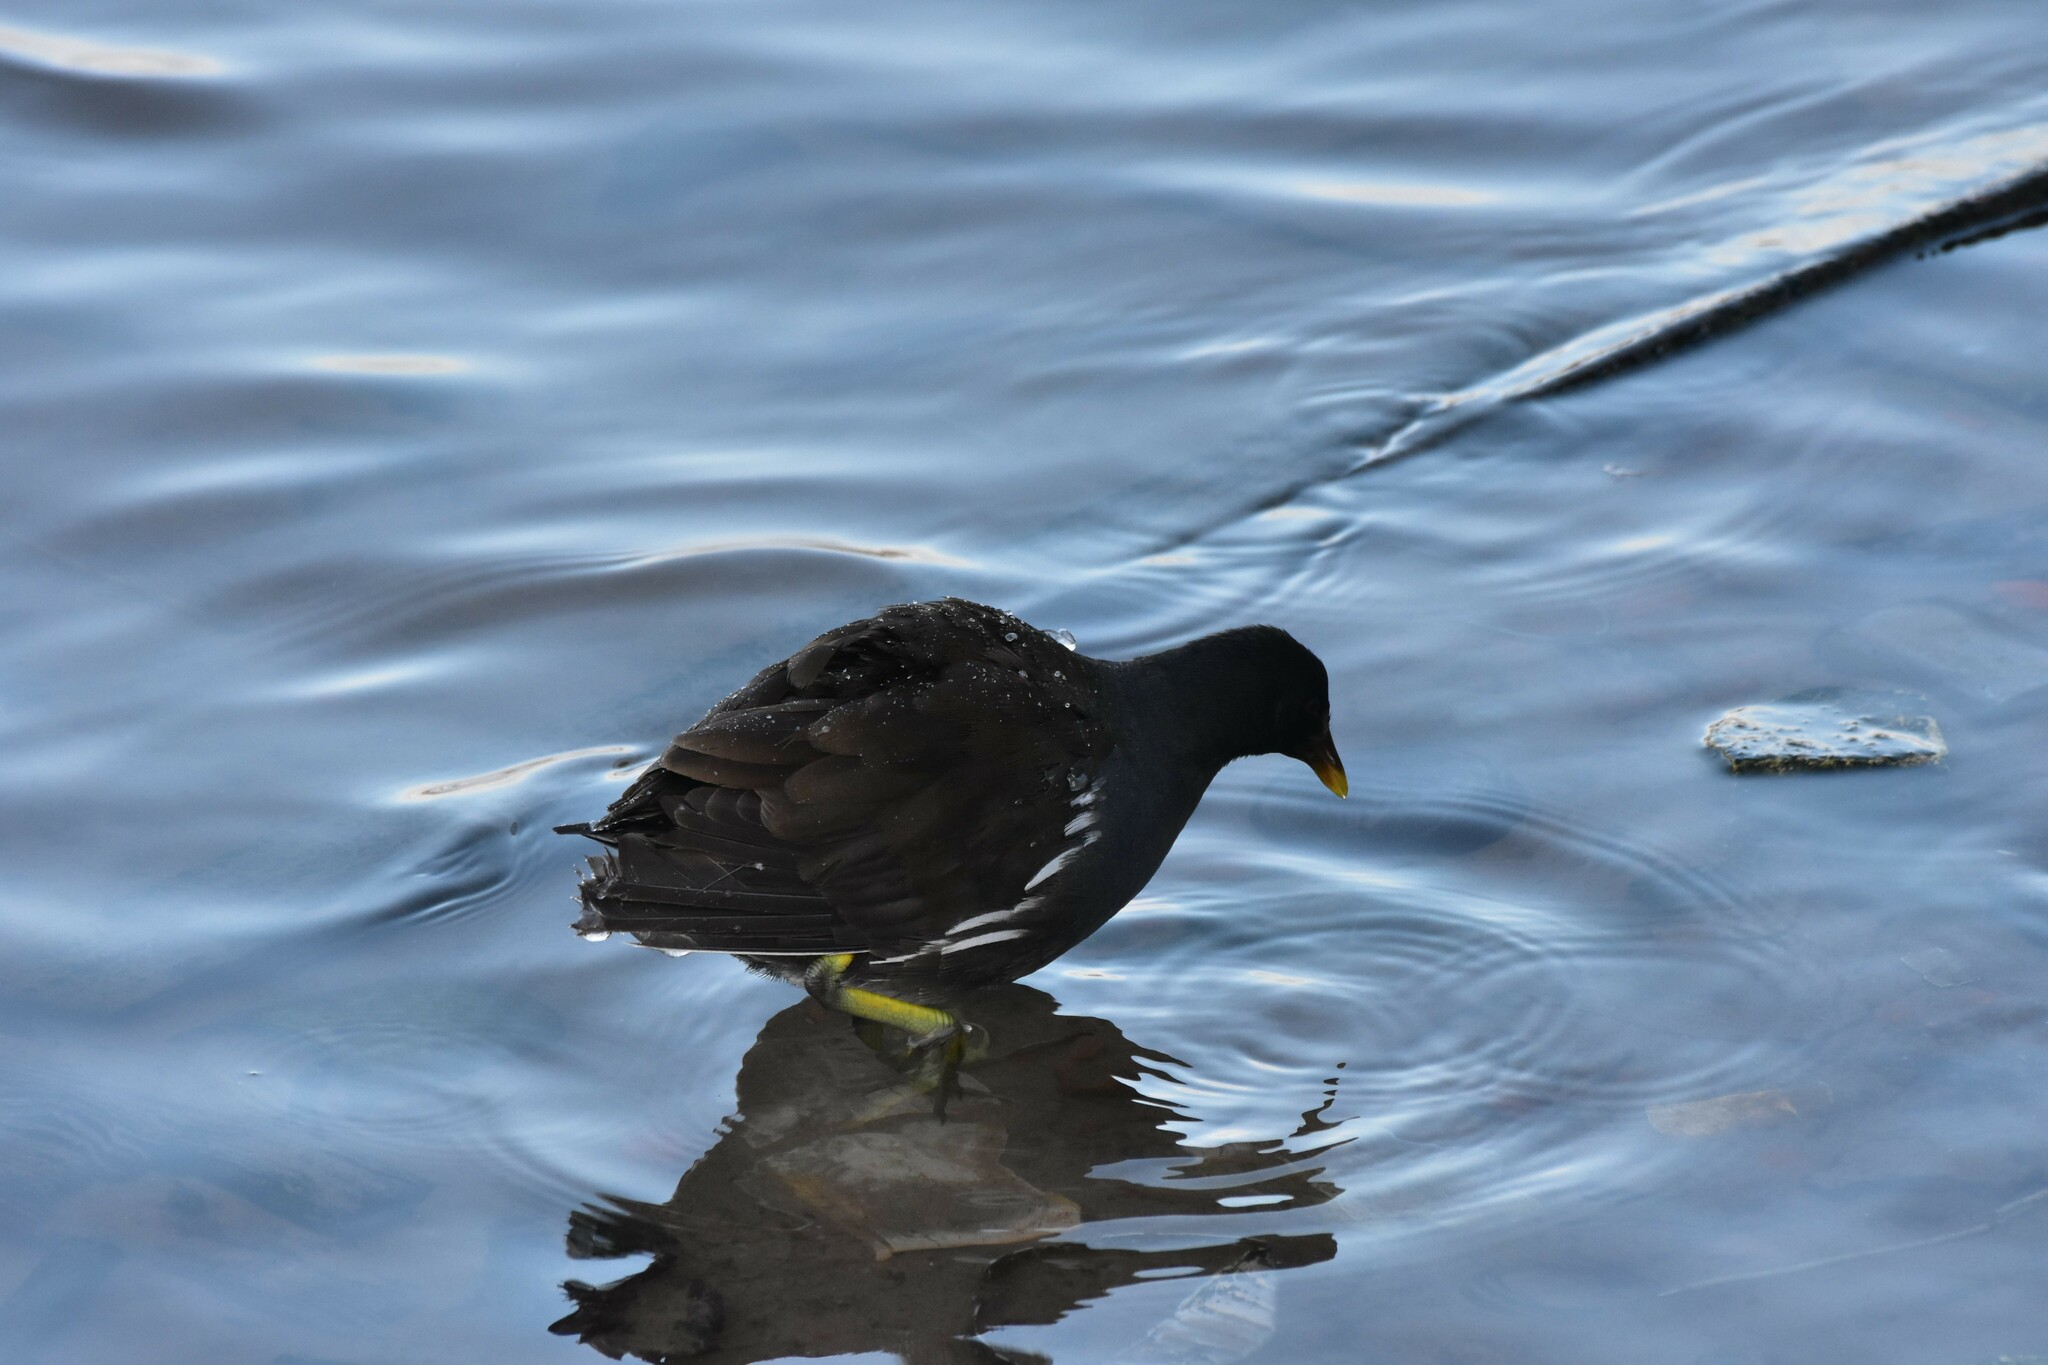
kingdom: Animalia
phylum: Chordata
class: Aves
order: Gruiformes
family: Rallidae
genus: Gallinula
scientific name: Gallinula chloropus
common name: Common moorhen
